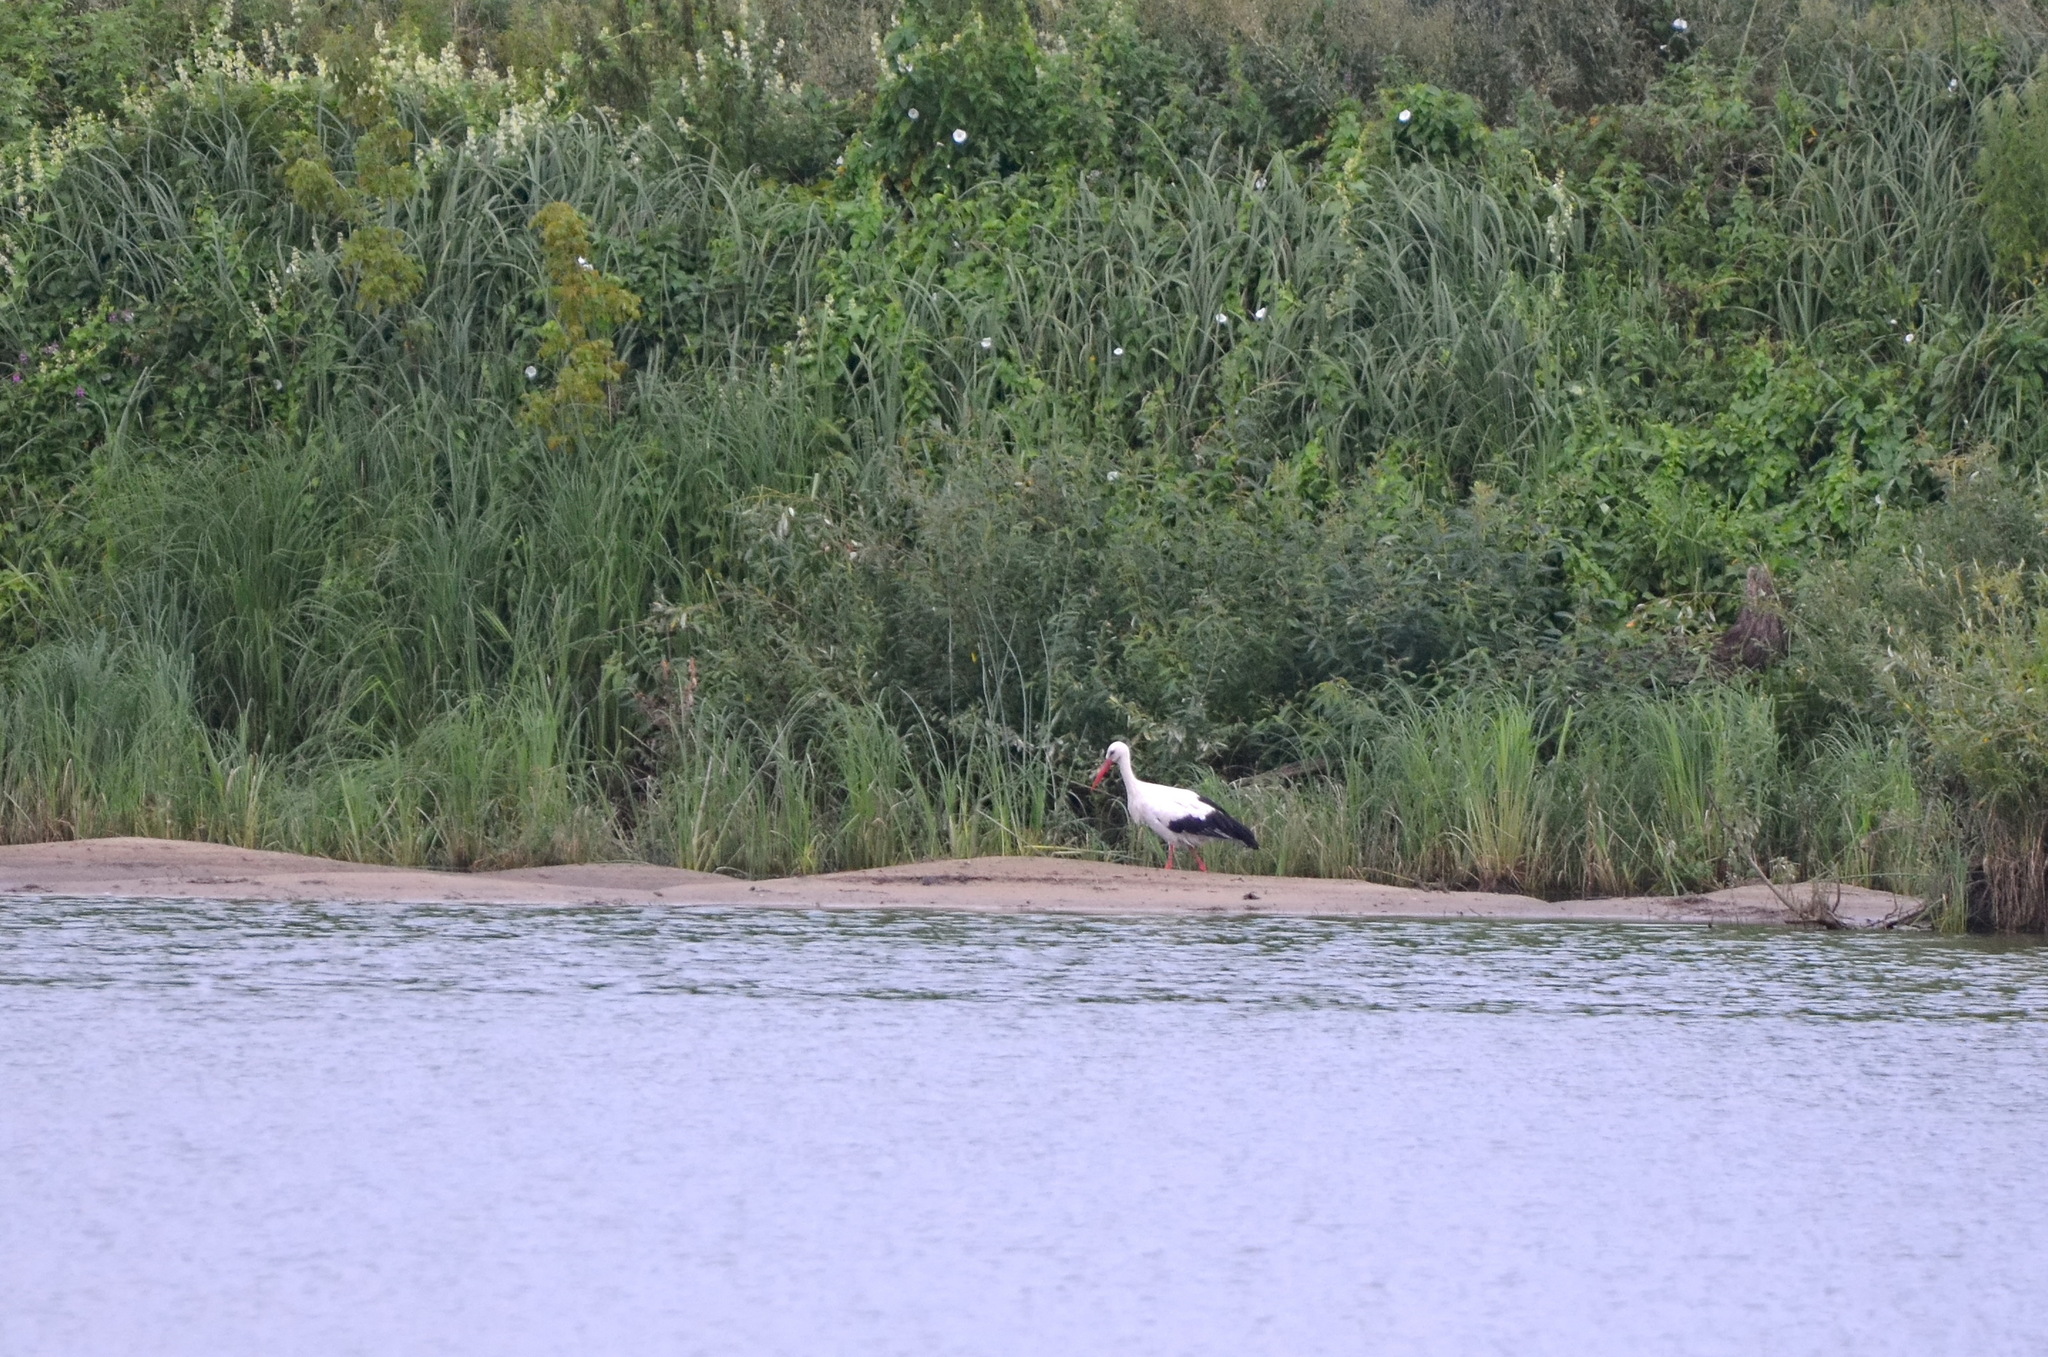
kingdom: Animalia
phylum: Chordata
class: Aves
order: Ciconiiformes
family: Ciconiidae
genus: Ciconia
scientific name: Ciconia ciconia
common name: White stork
